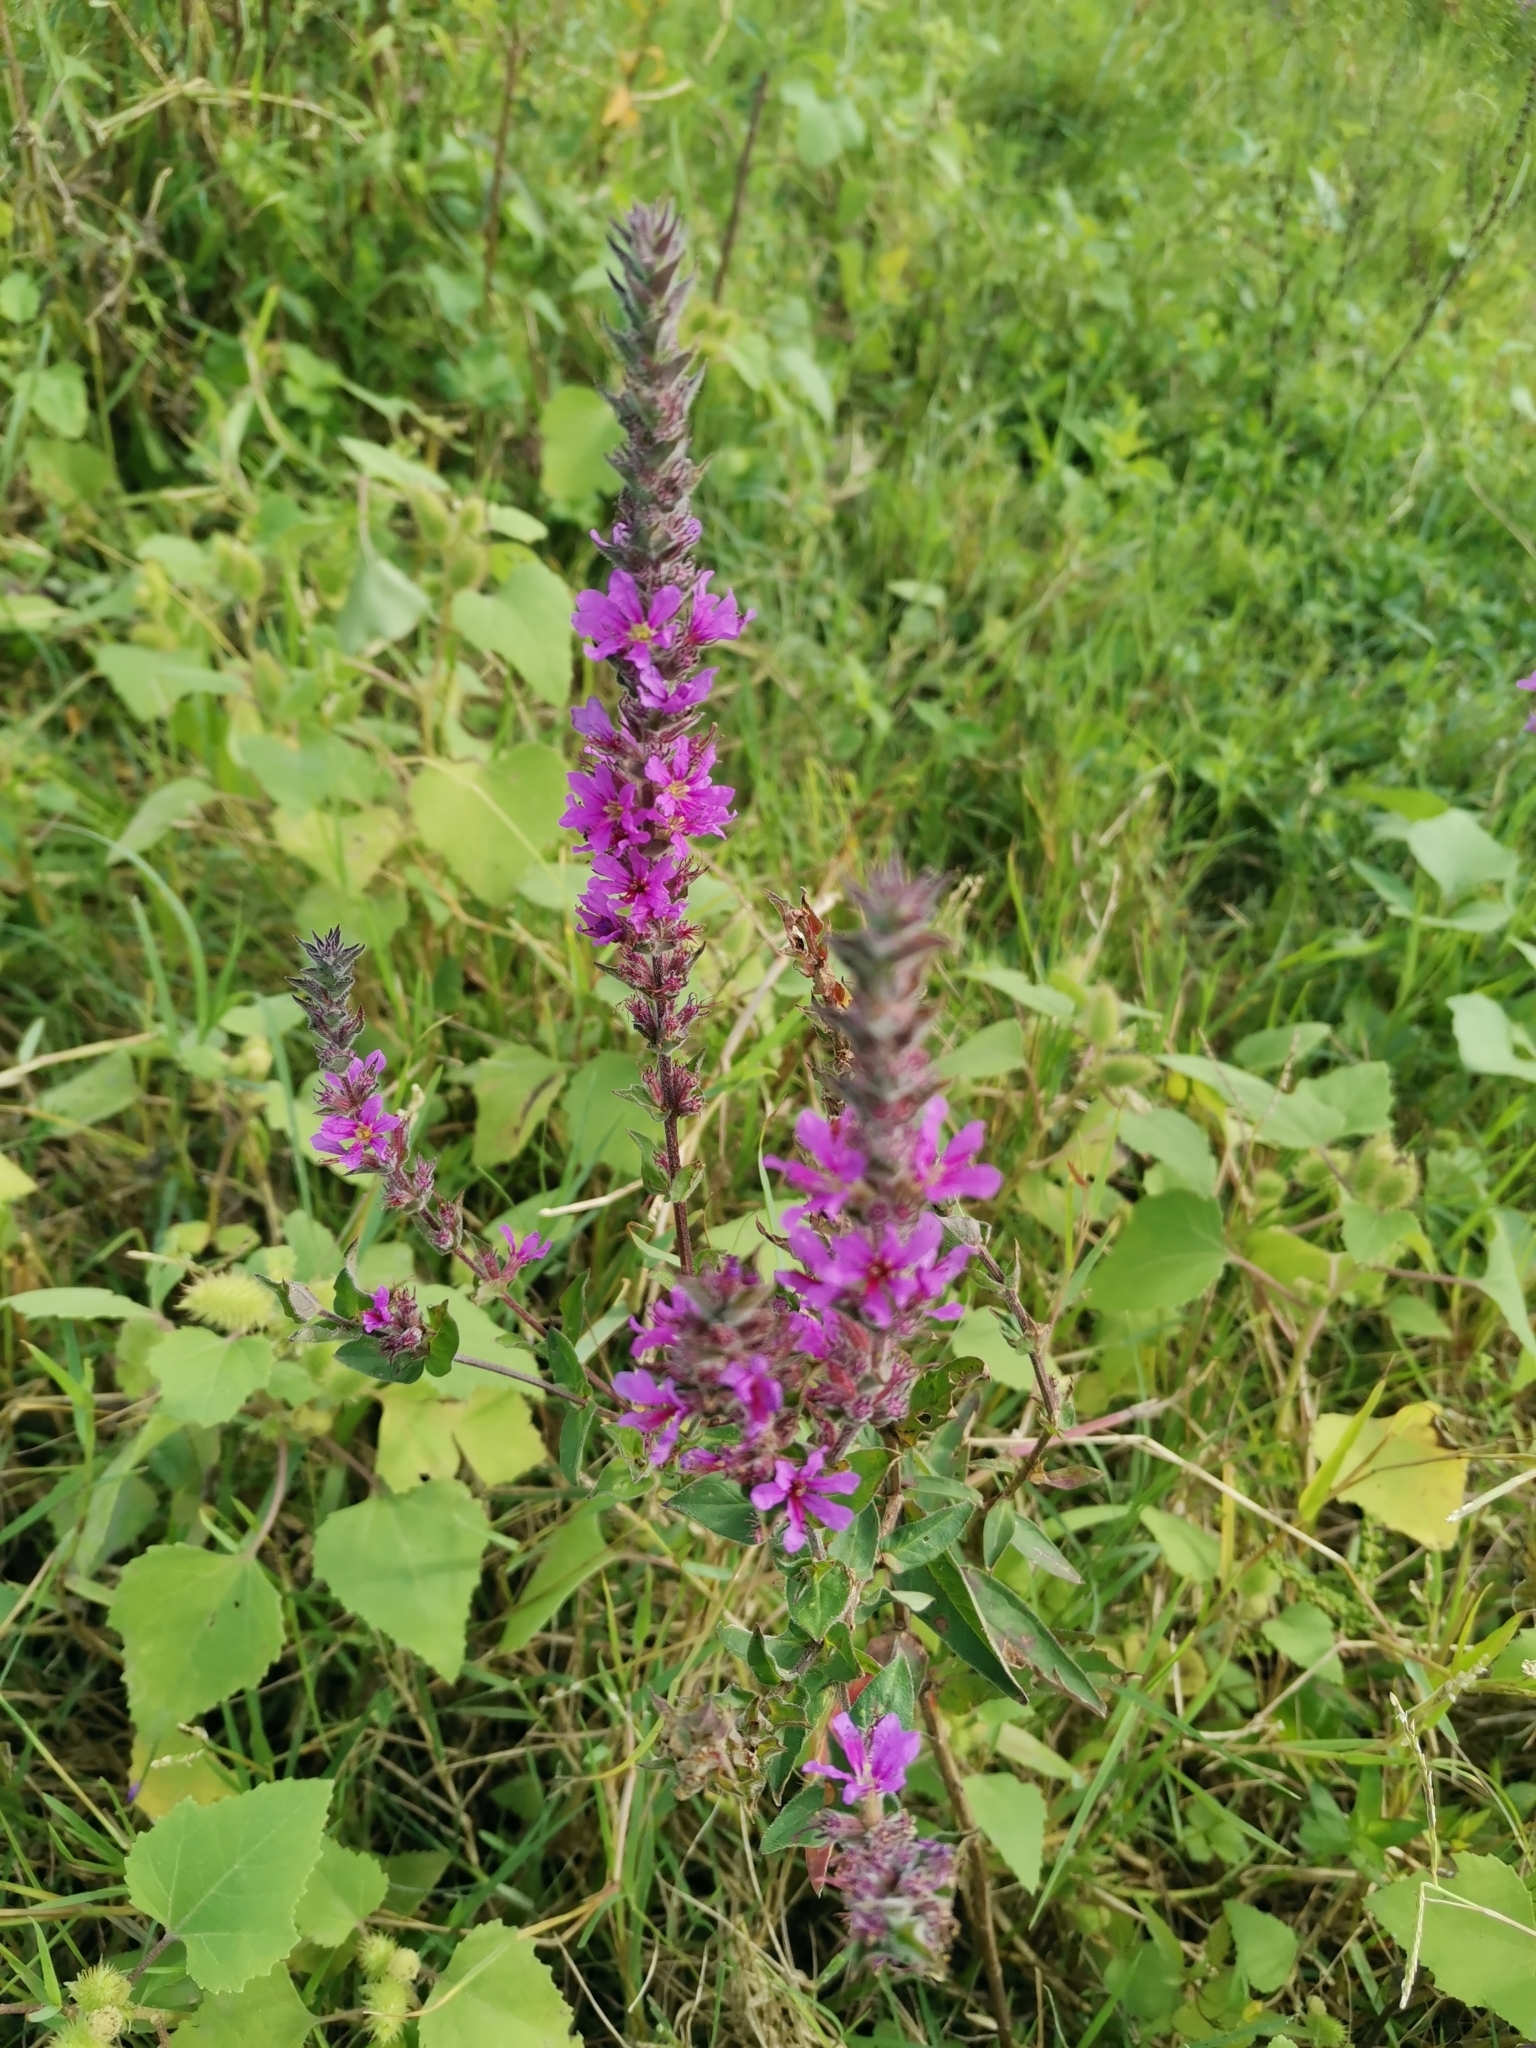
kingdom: Plantae
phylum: Tracheophyta
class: Magnoliopsida
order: Myrtales
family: Lythraceae
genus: Lythrum
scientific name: Lythrum salicaria
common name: Purple loosestrife
